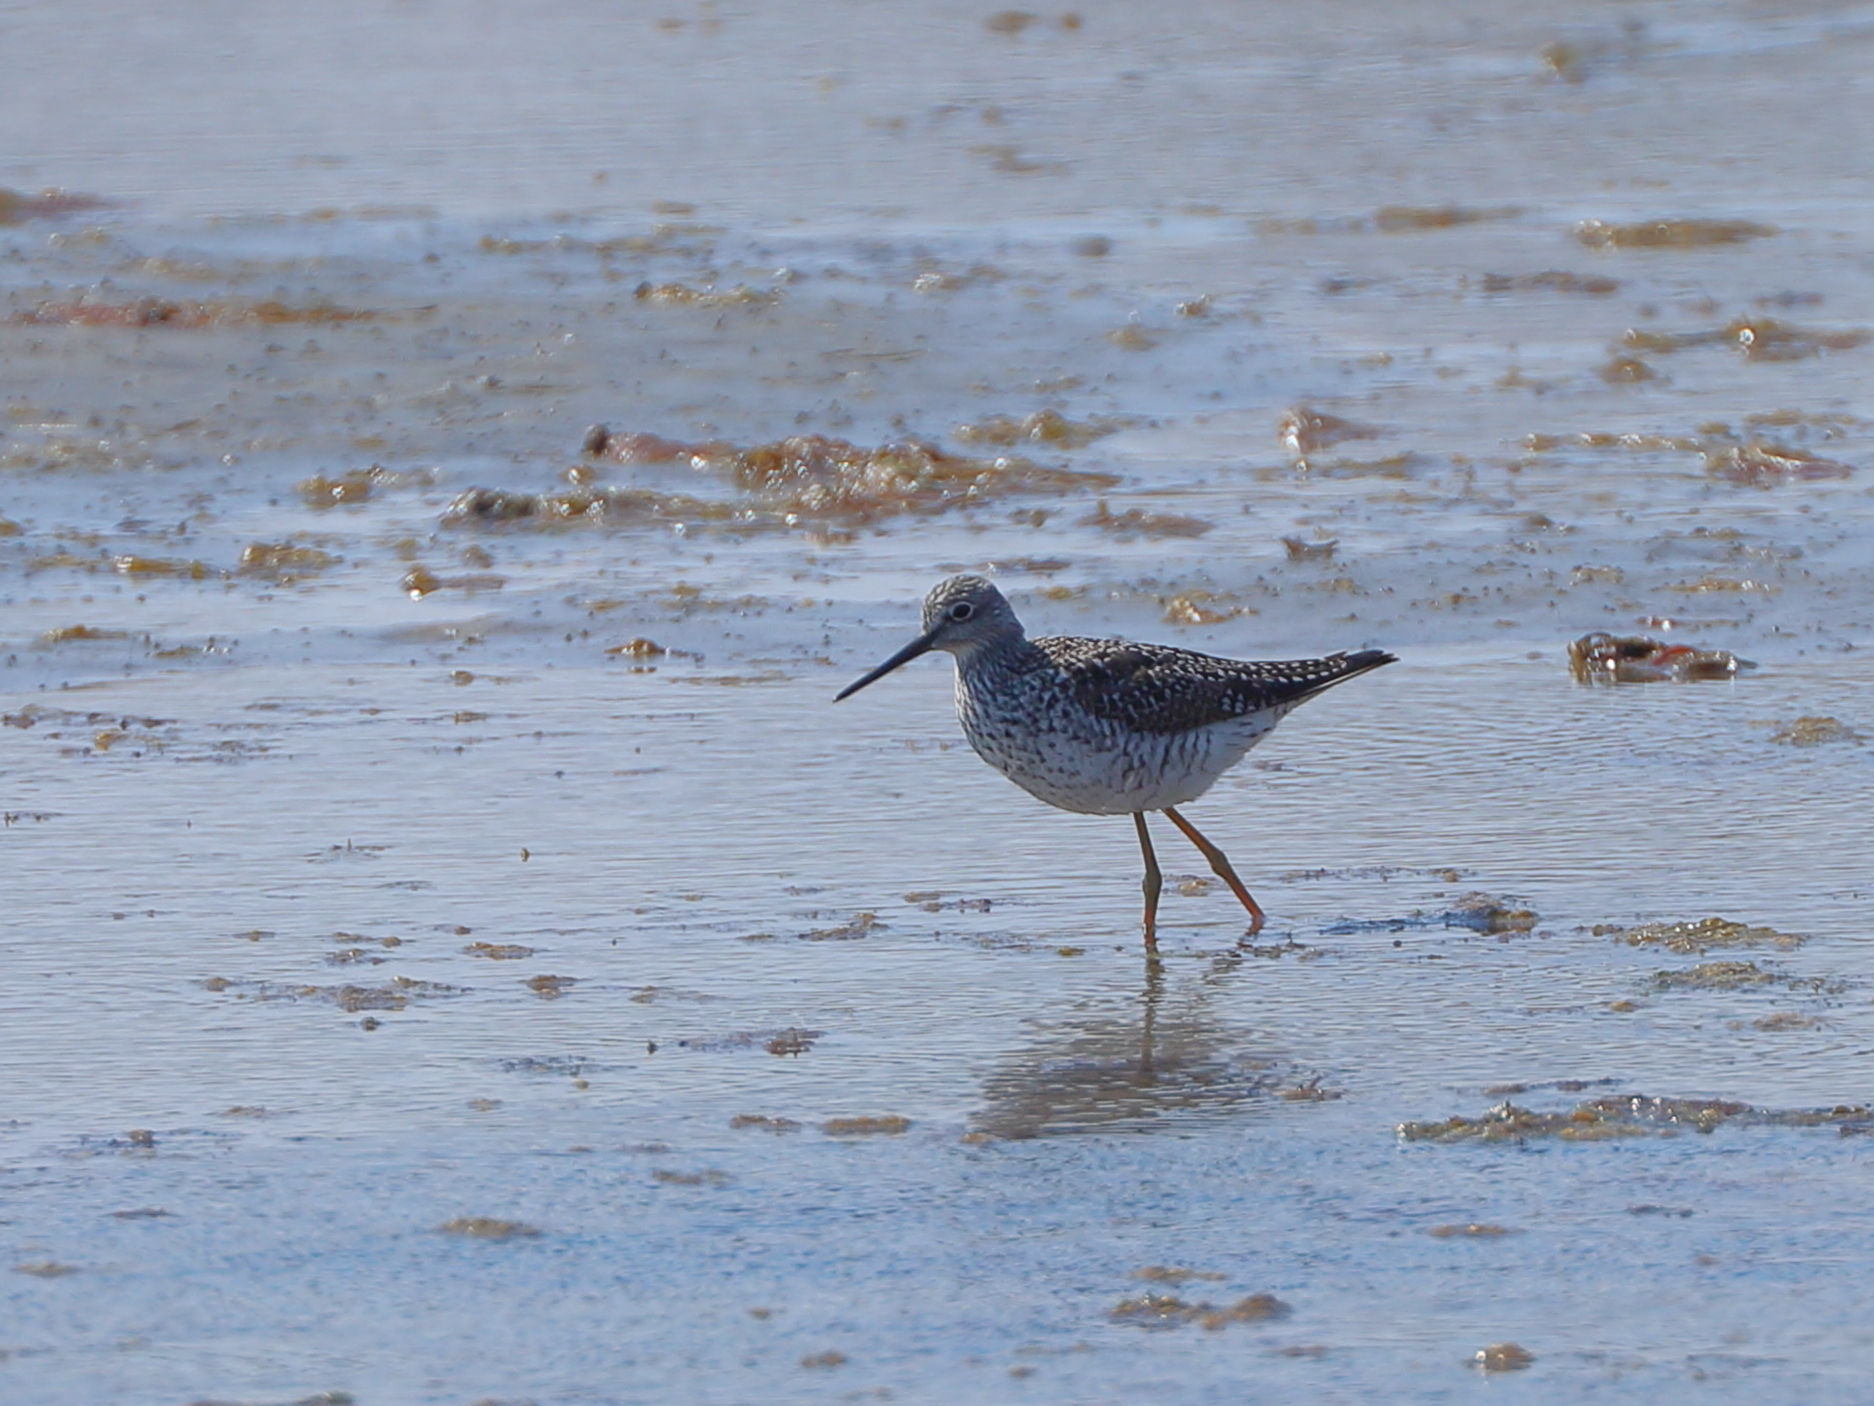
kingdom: Animalia
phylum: Chordata
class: Aves
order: Charadriiformes
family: Scolopacidae
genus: Tringa
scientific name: Tringa melanoleuca
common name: Greater yellowlegs
